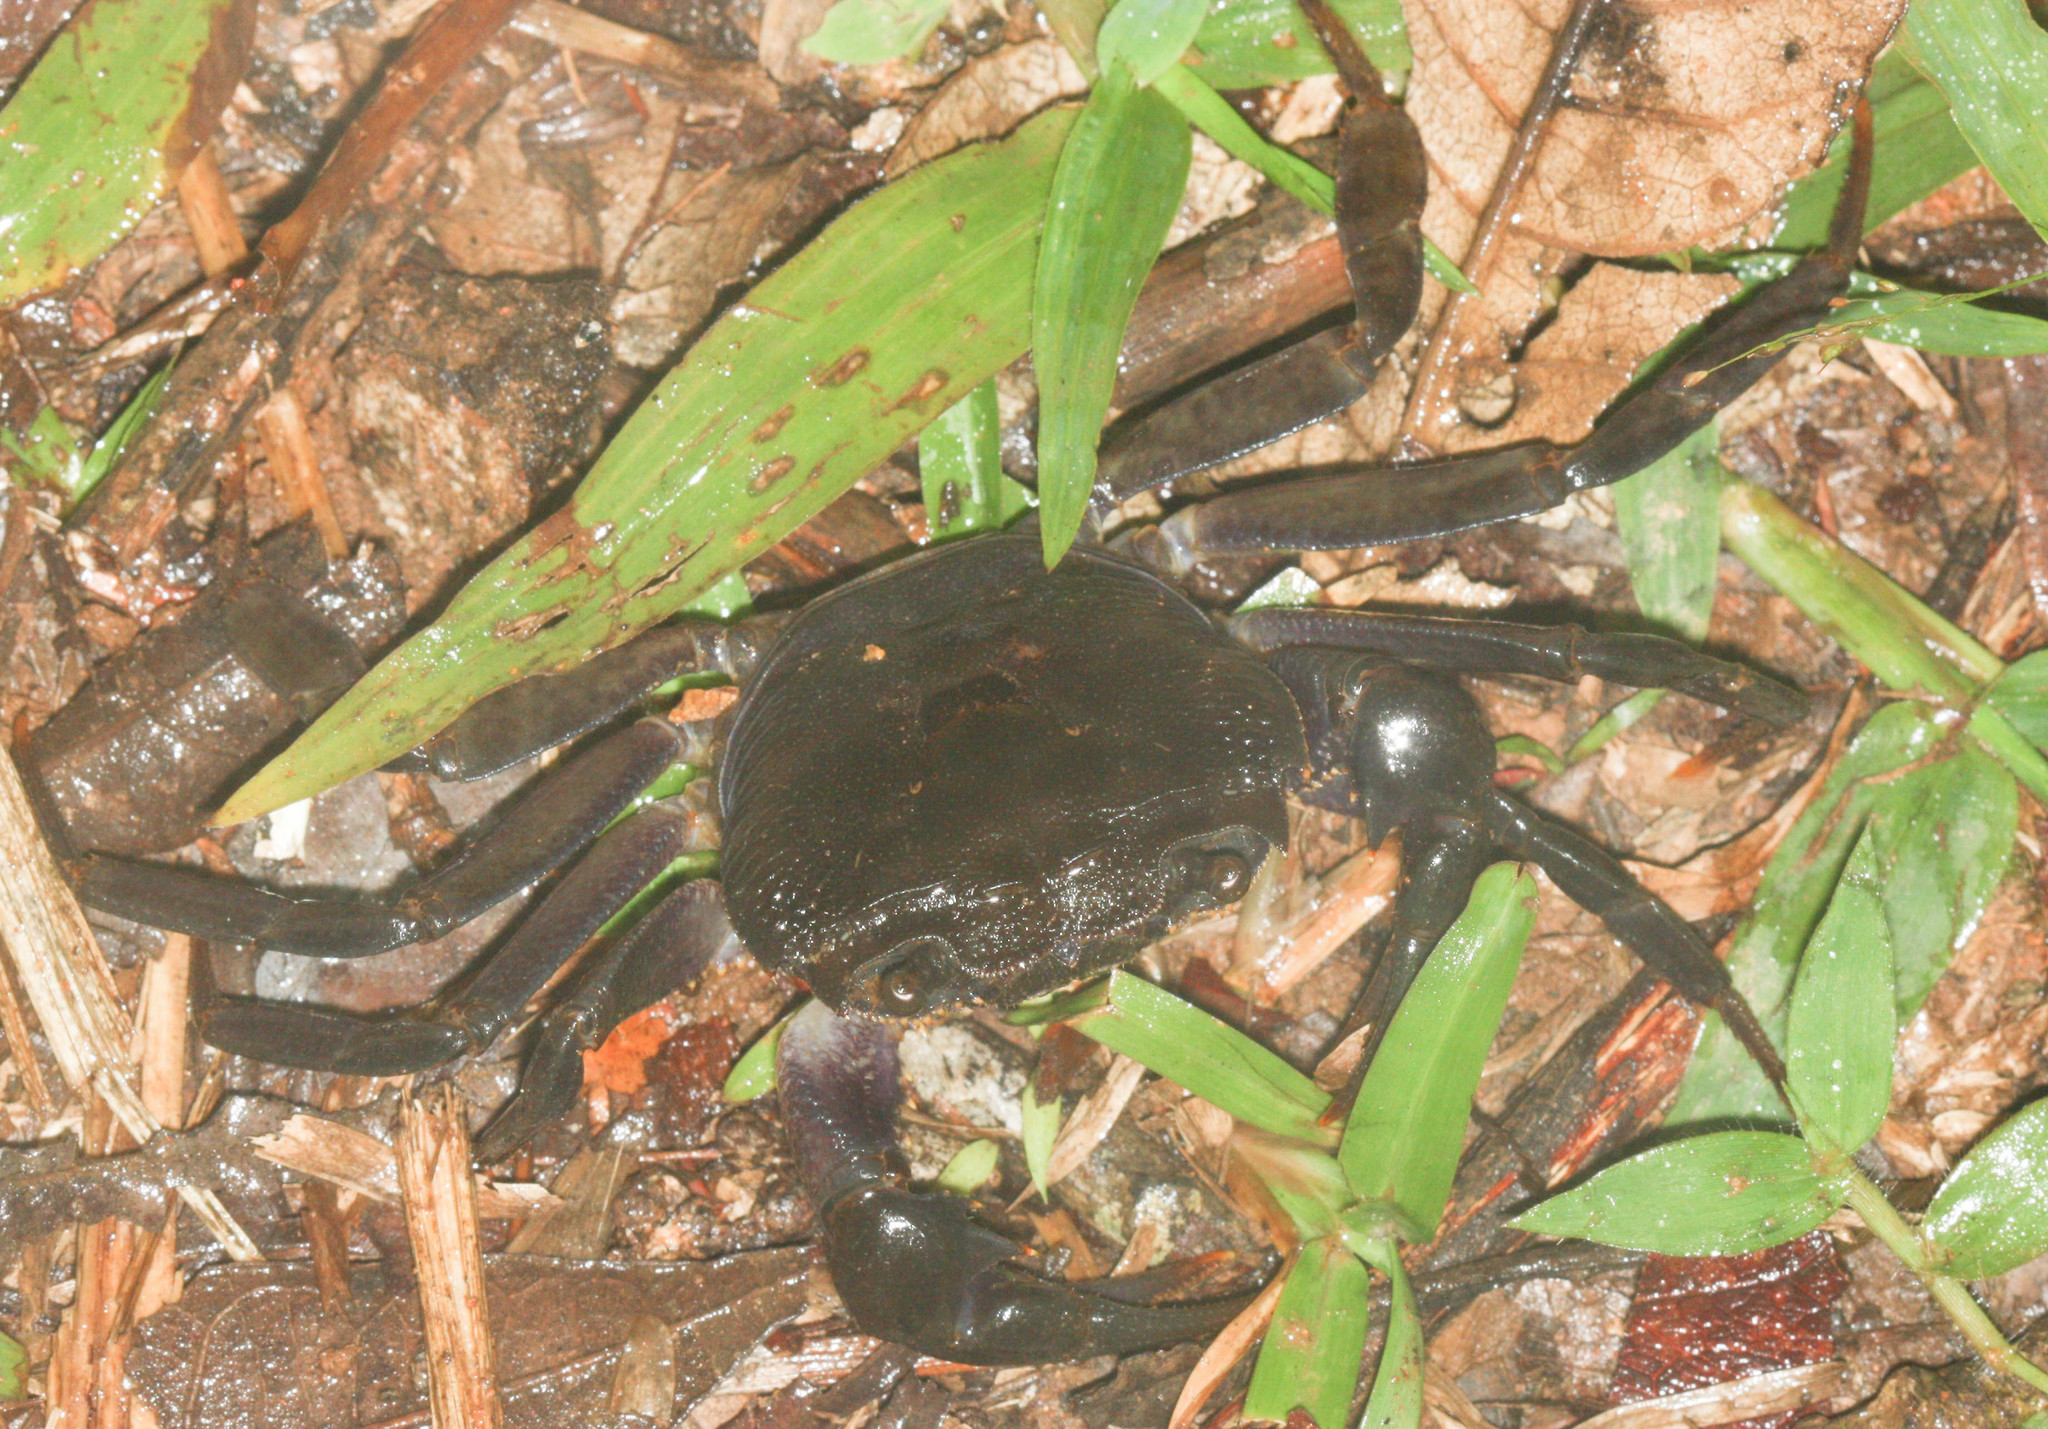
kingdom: Animalia
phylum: Arthropoda
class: Malacostraca
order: Decapoda
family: Deckeniidae
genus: Hydrothelphusa
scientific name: Hydrothelphusa agilis
